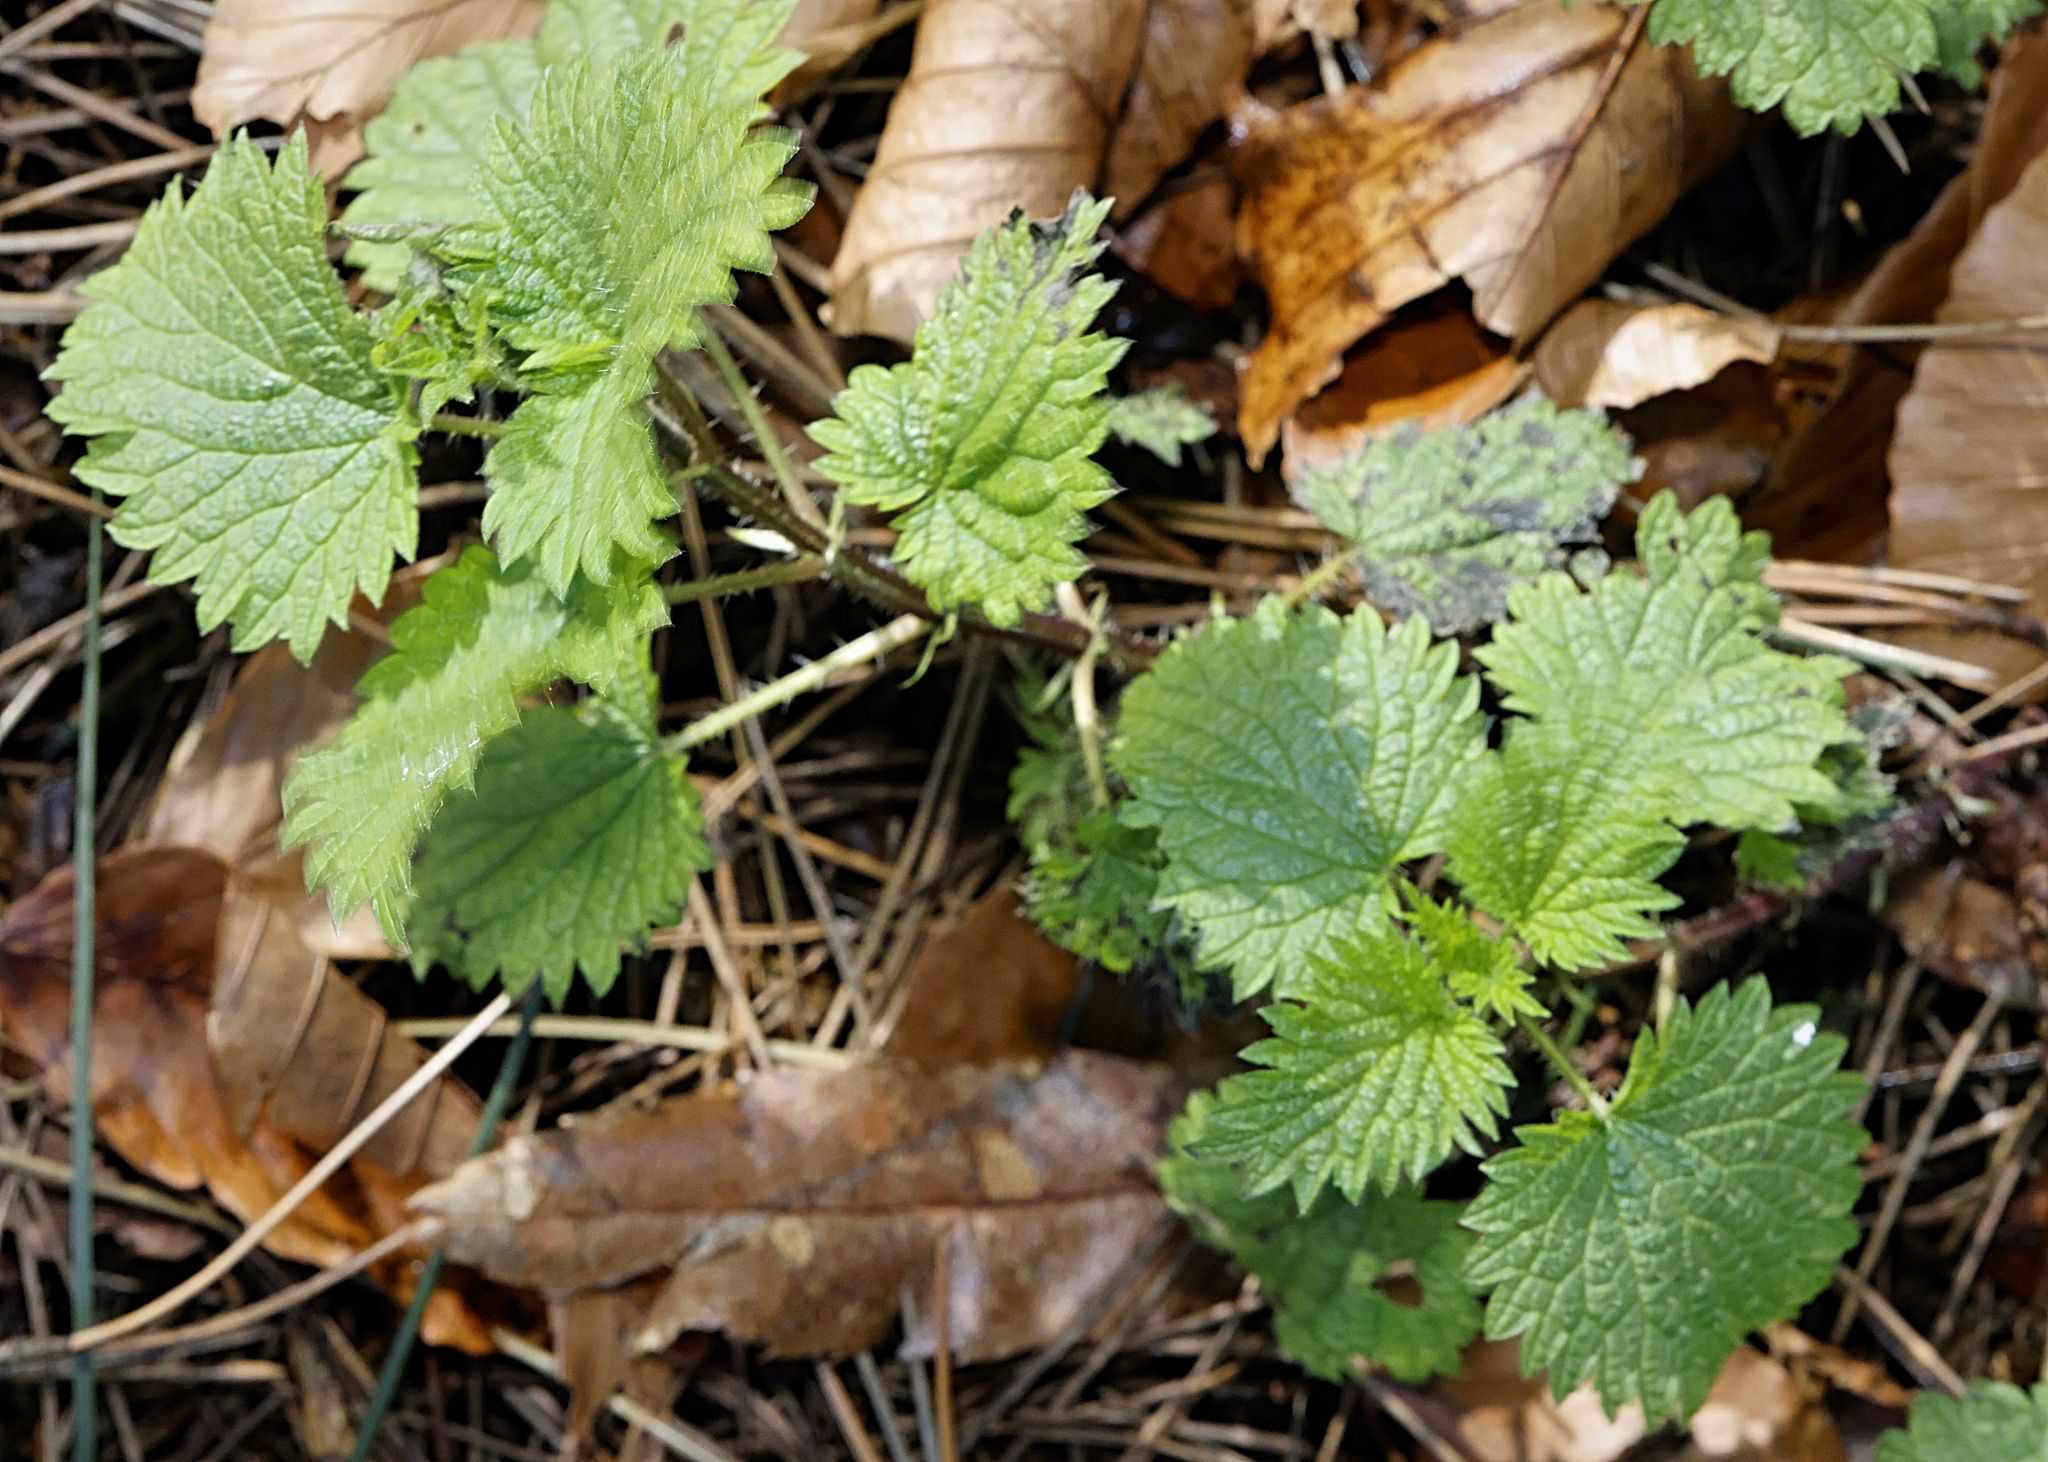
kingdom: Plantae
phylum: Tracheophyta
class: Magnoliopsida
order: Rosales
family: Urticaceae
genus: Urtica
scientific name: Urtica dioica
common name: Common nettle
